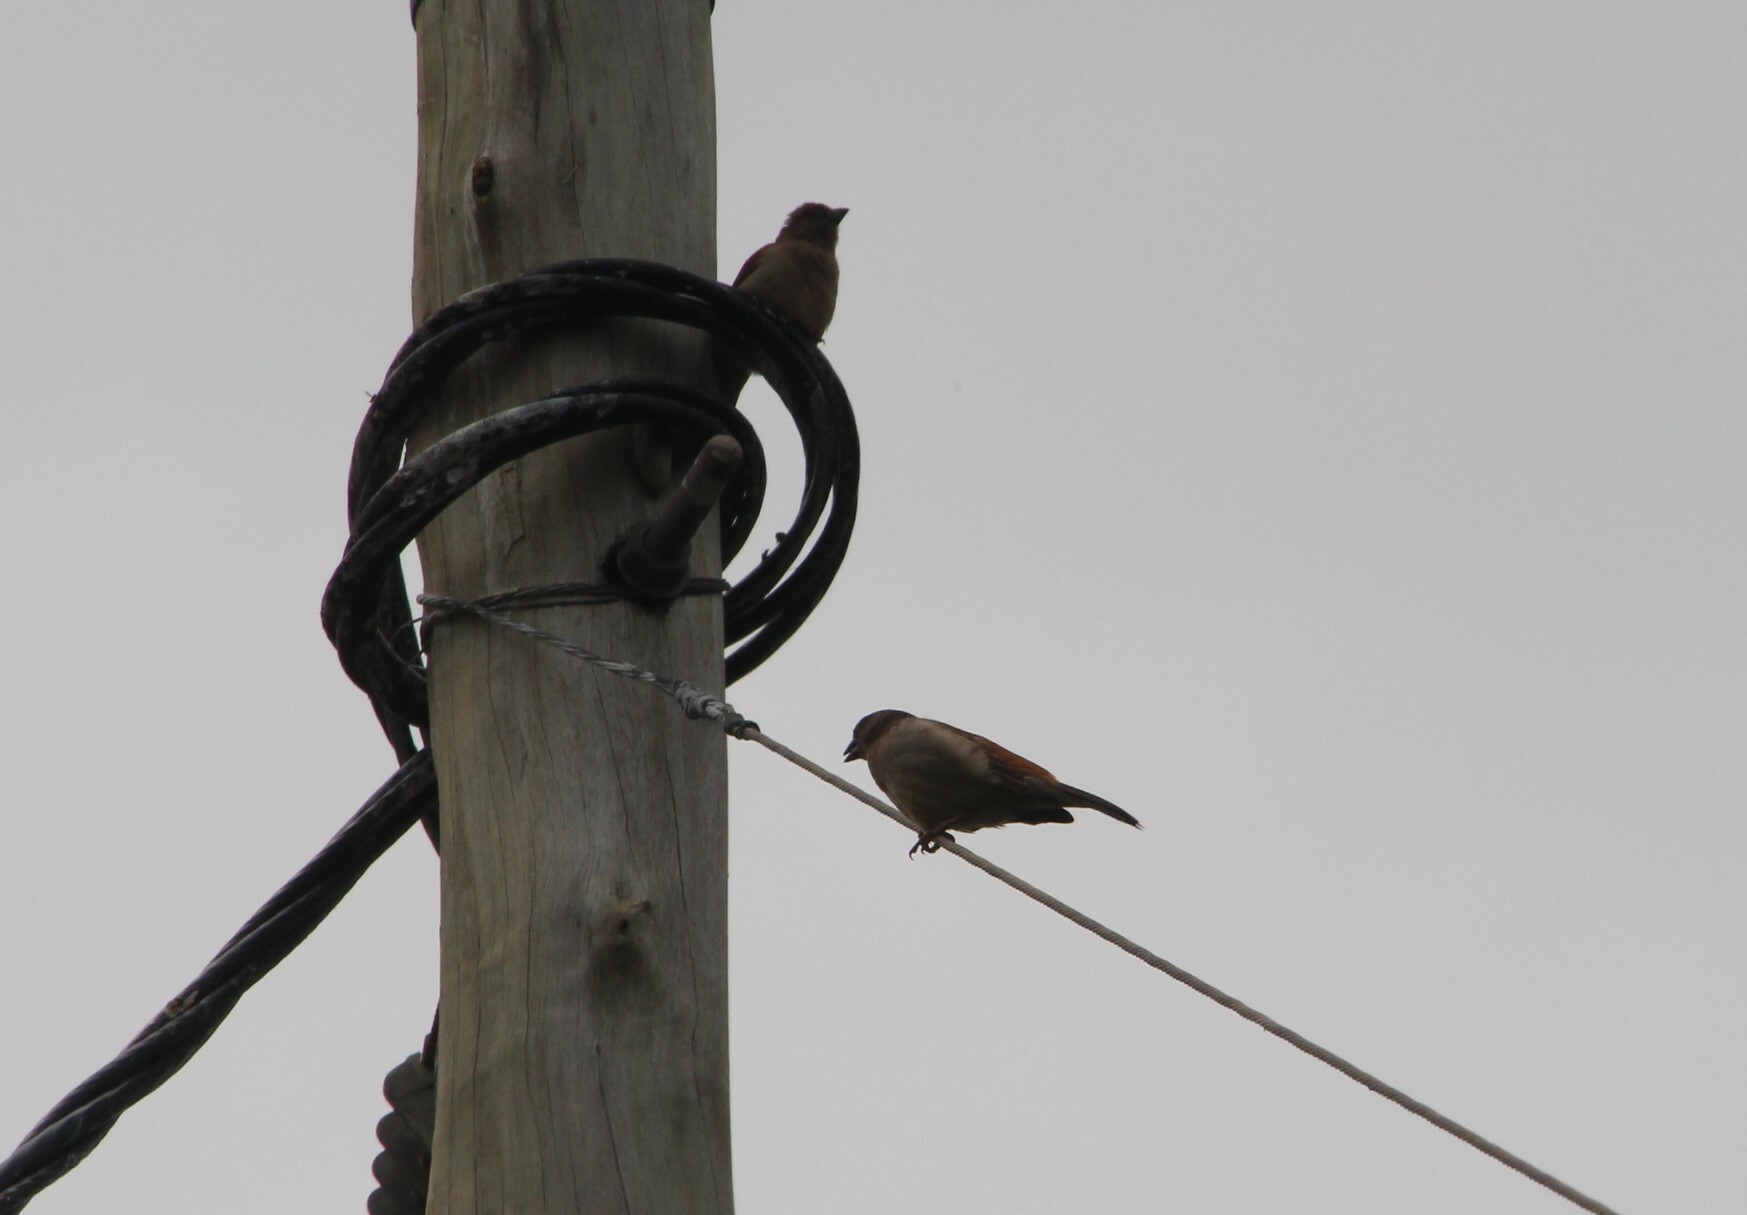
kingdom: Animalia
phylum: Chordata
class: Aves
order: Passeriformes
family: Passeridae
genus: Passer
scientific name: Passer griseus
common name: Northern grey-headed sparrow
